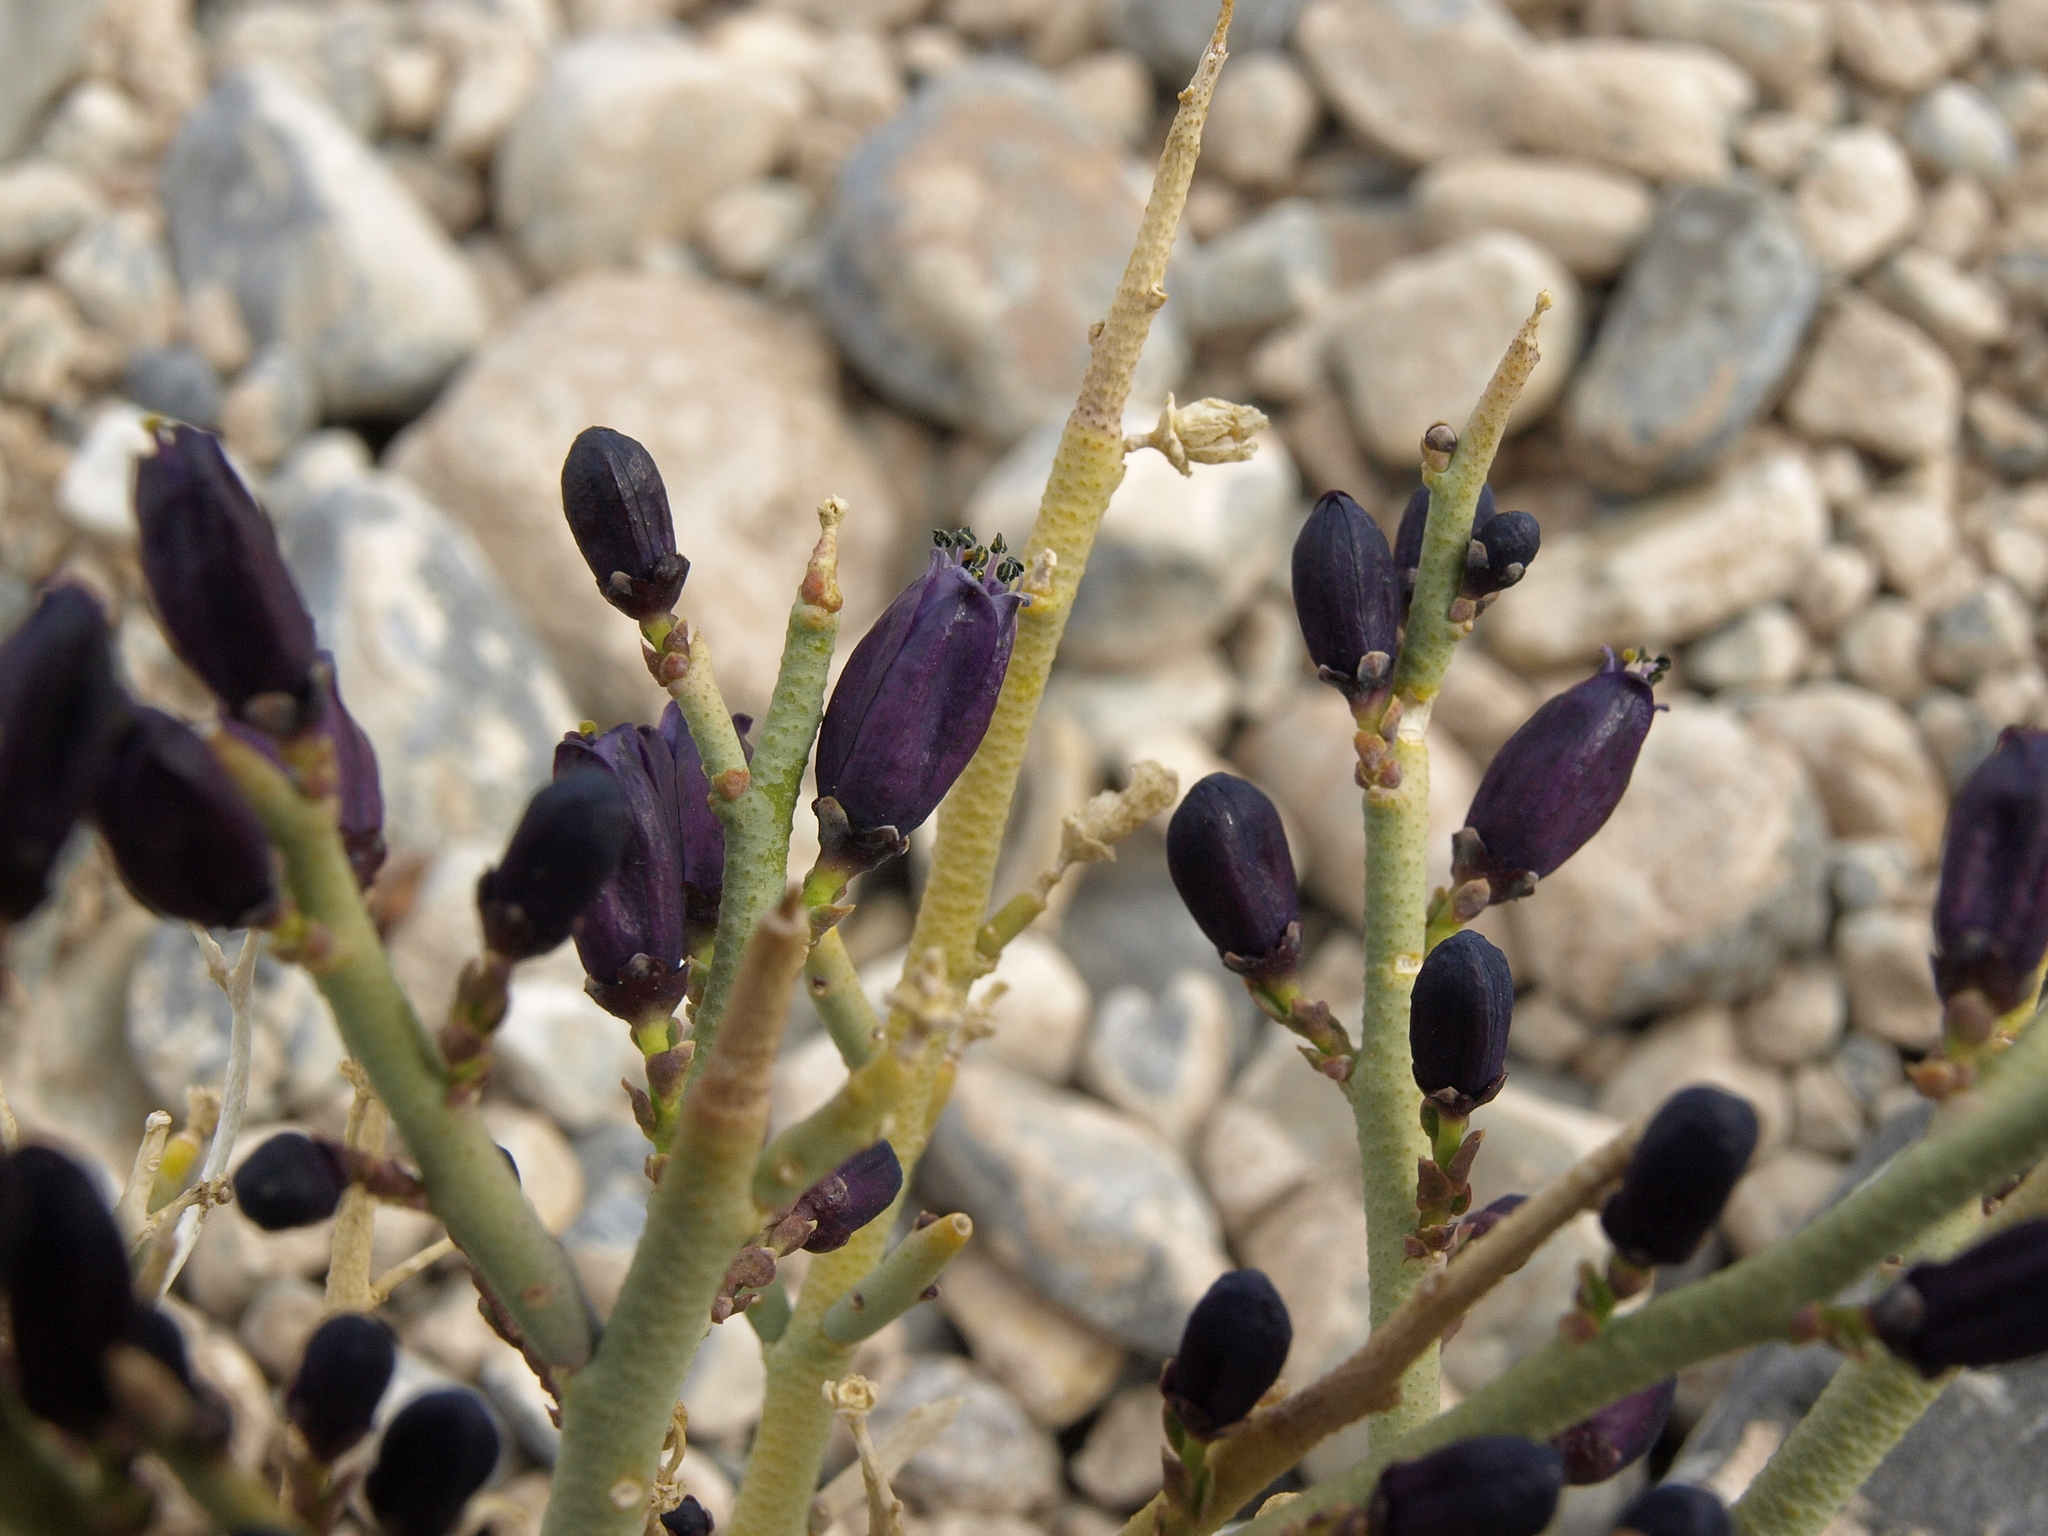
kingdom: Plantae
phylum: Tracheophyta
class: Magnoliopsida
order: Sapindales
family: Rutaceae
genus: Thamnosma
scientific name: Thamnosma montana
